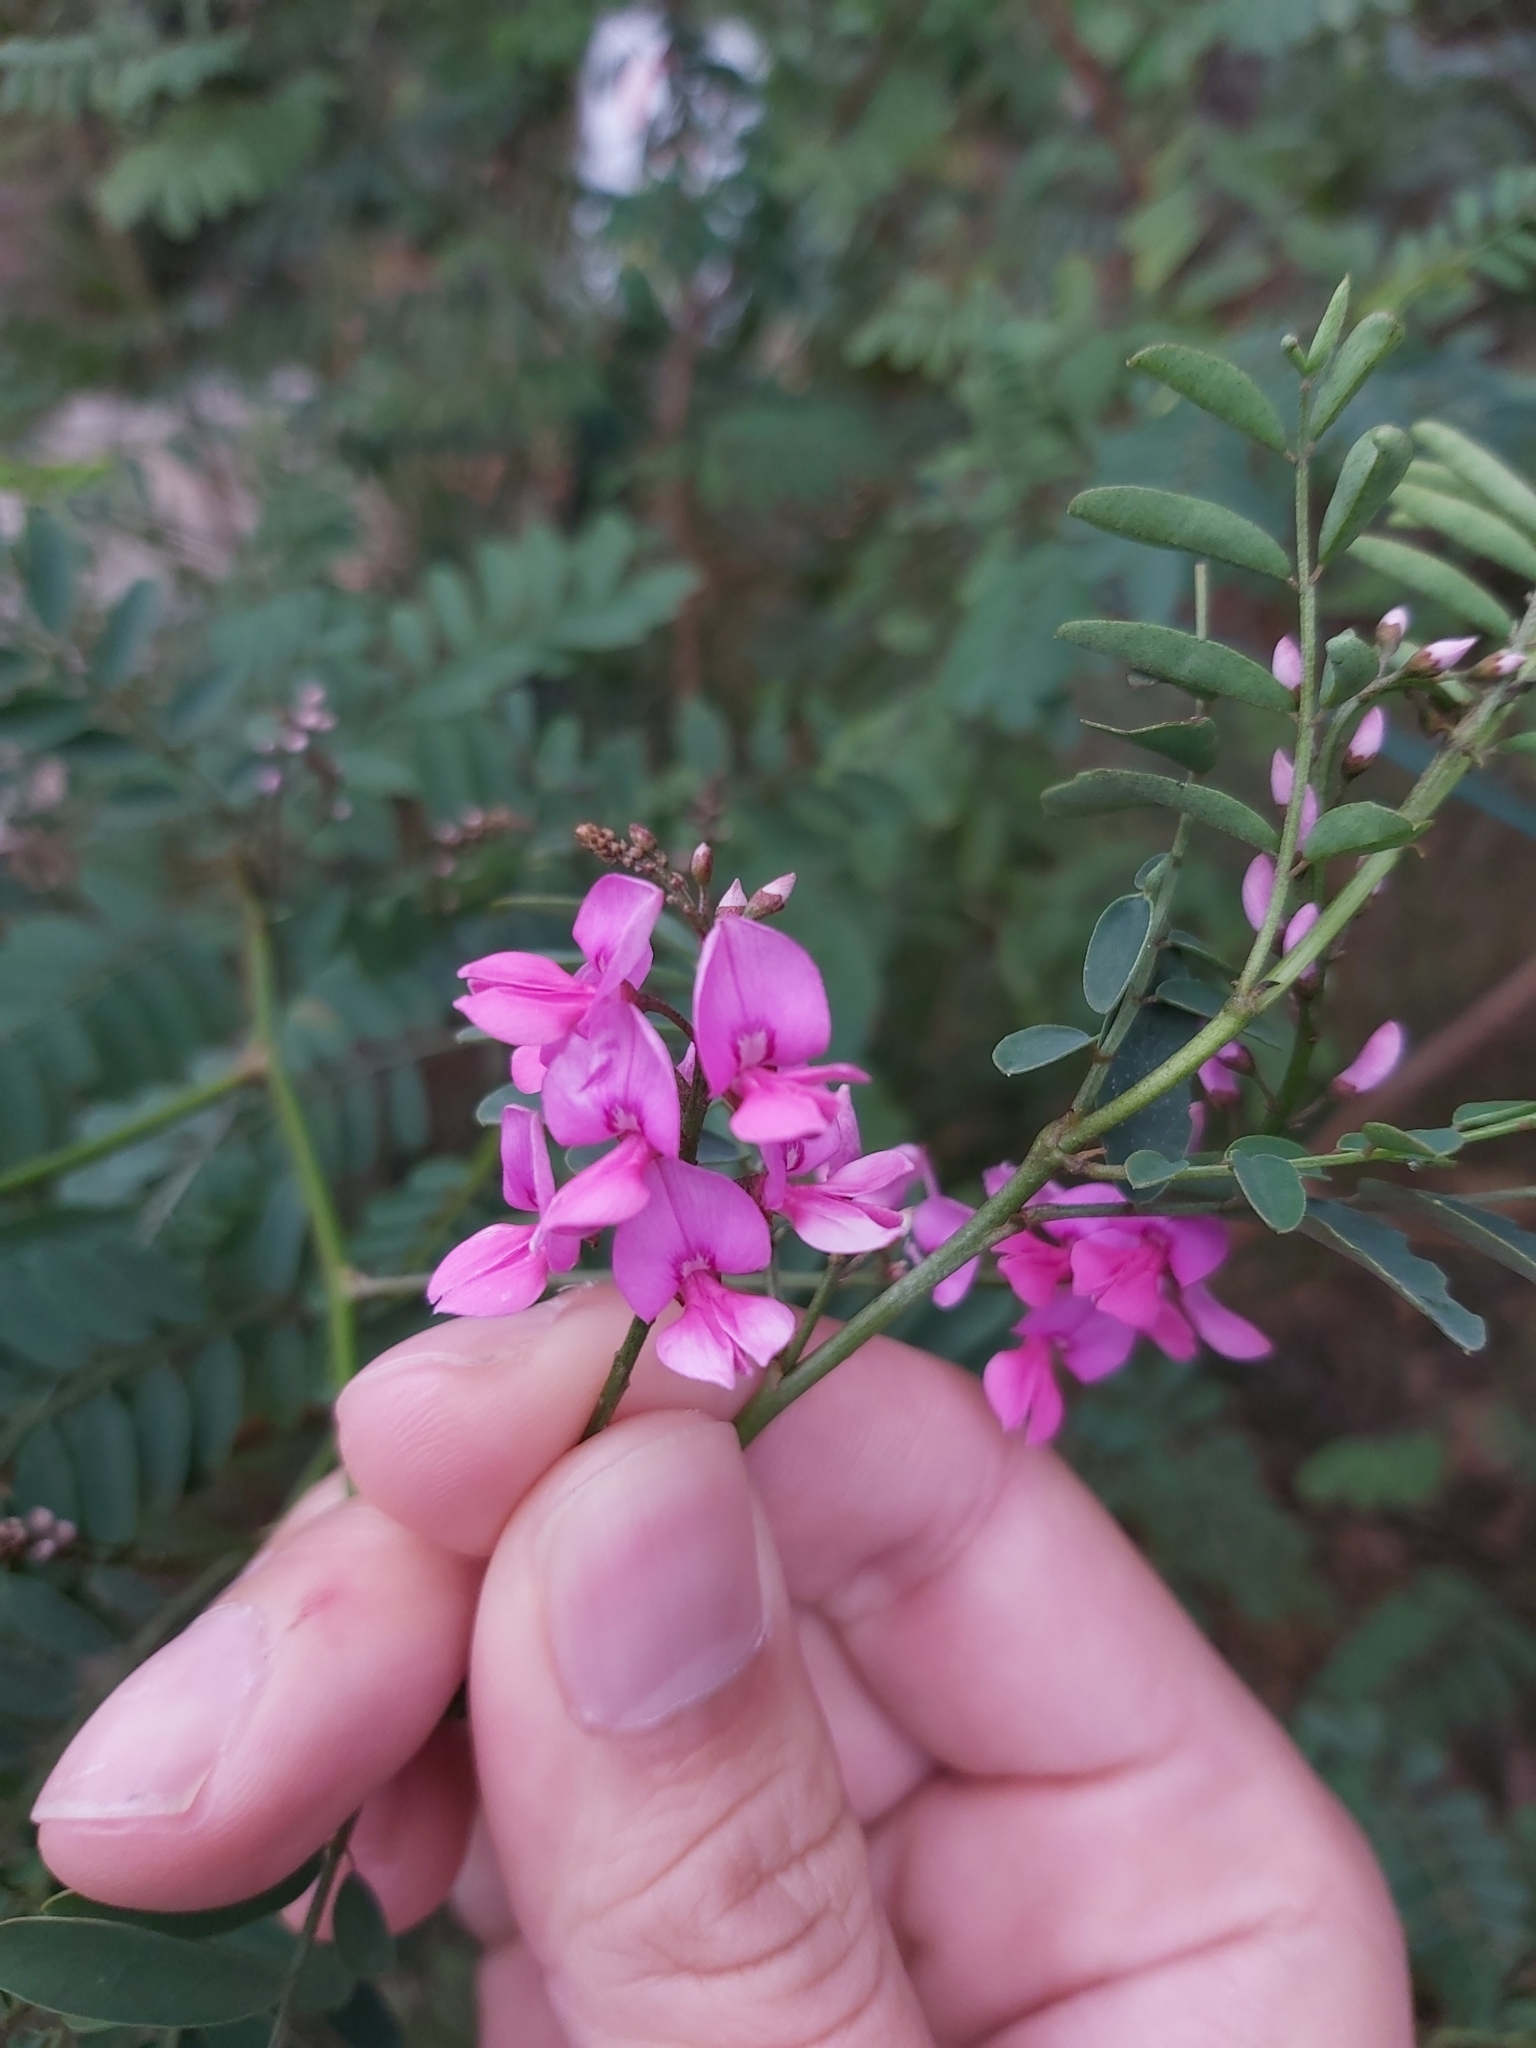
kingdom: Plantae
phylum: Tracheophyta
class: Magnoliopsida
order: Fabales
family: Fabaceae
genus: Indigofera
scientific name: Indigofera australis
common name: Australian indigo
